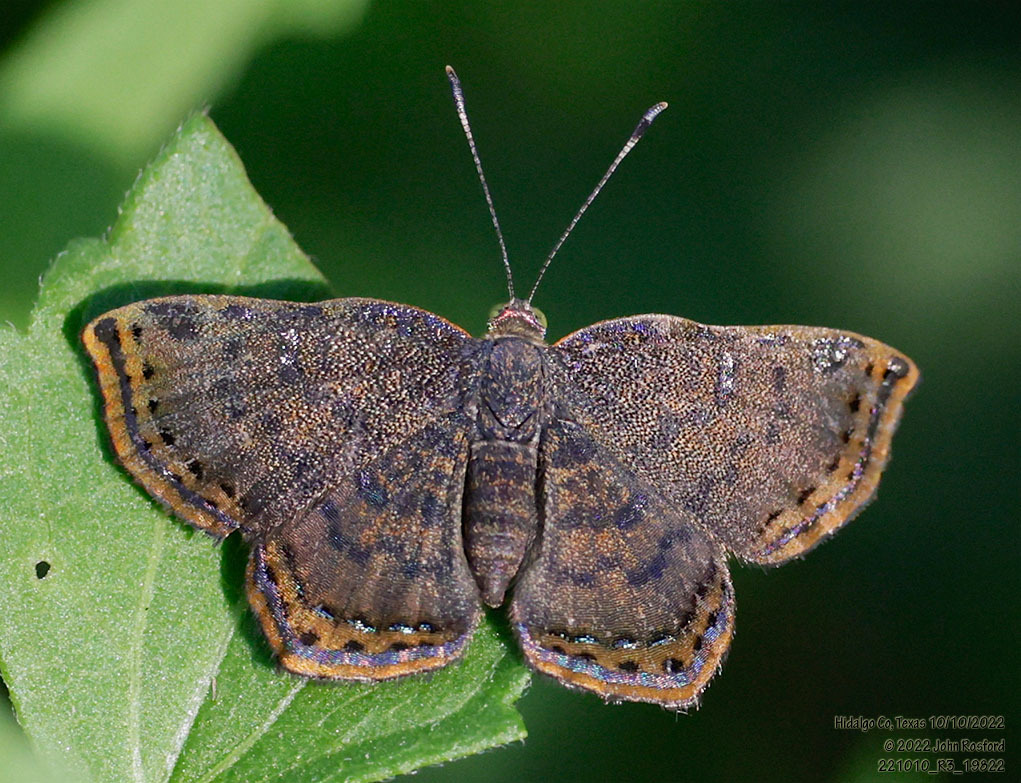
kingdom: Animalia
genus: Caria
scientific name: Caria ino
